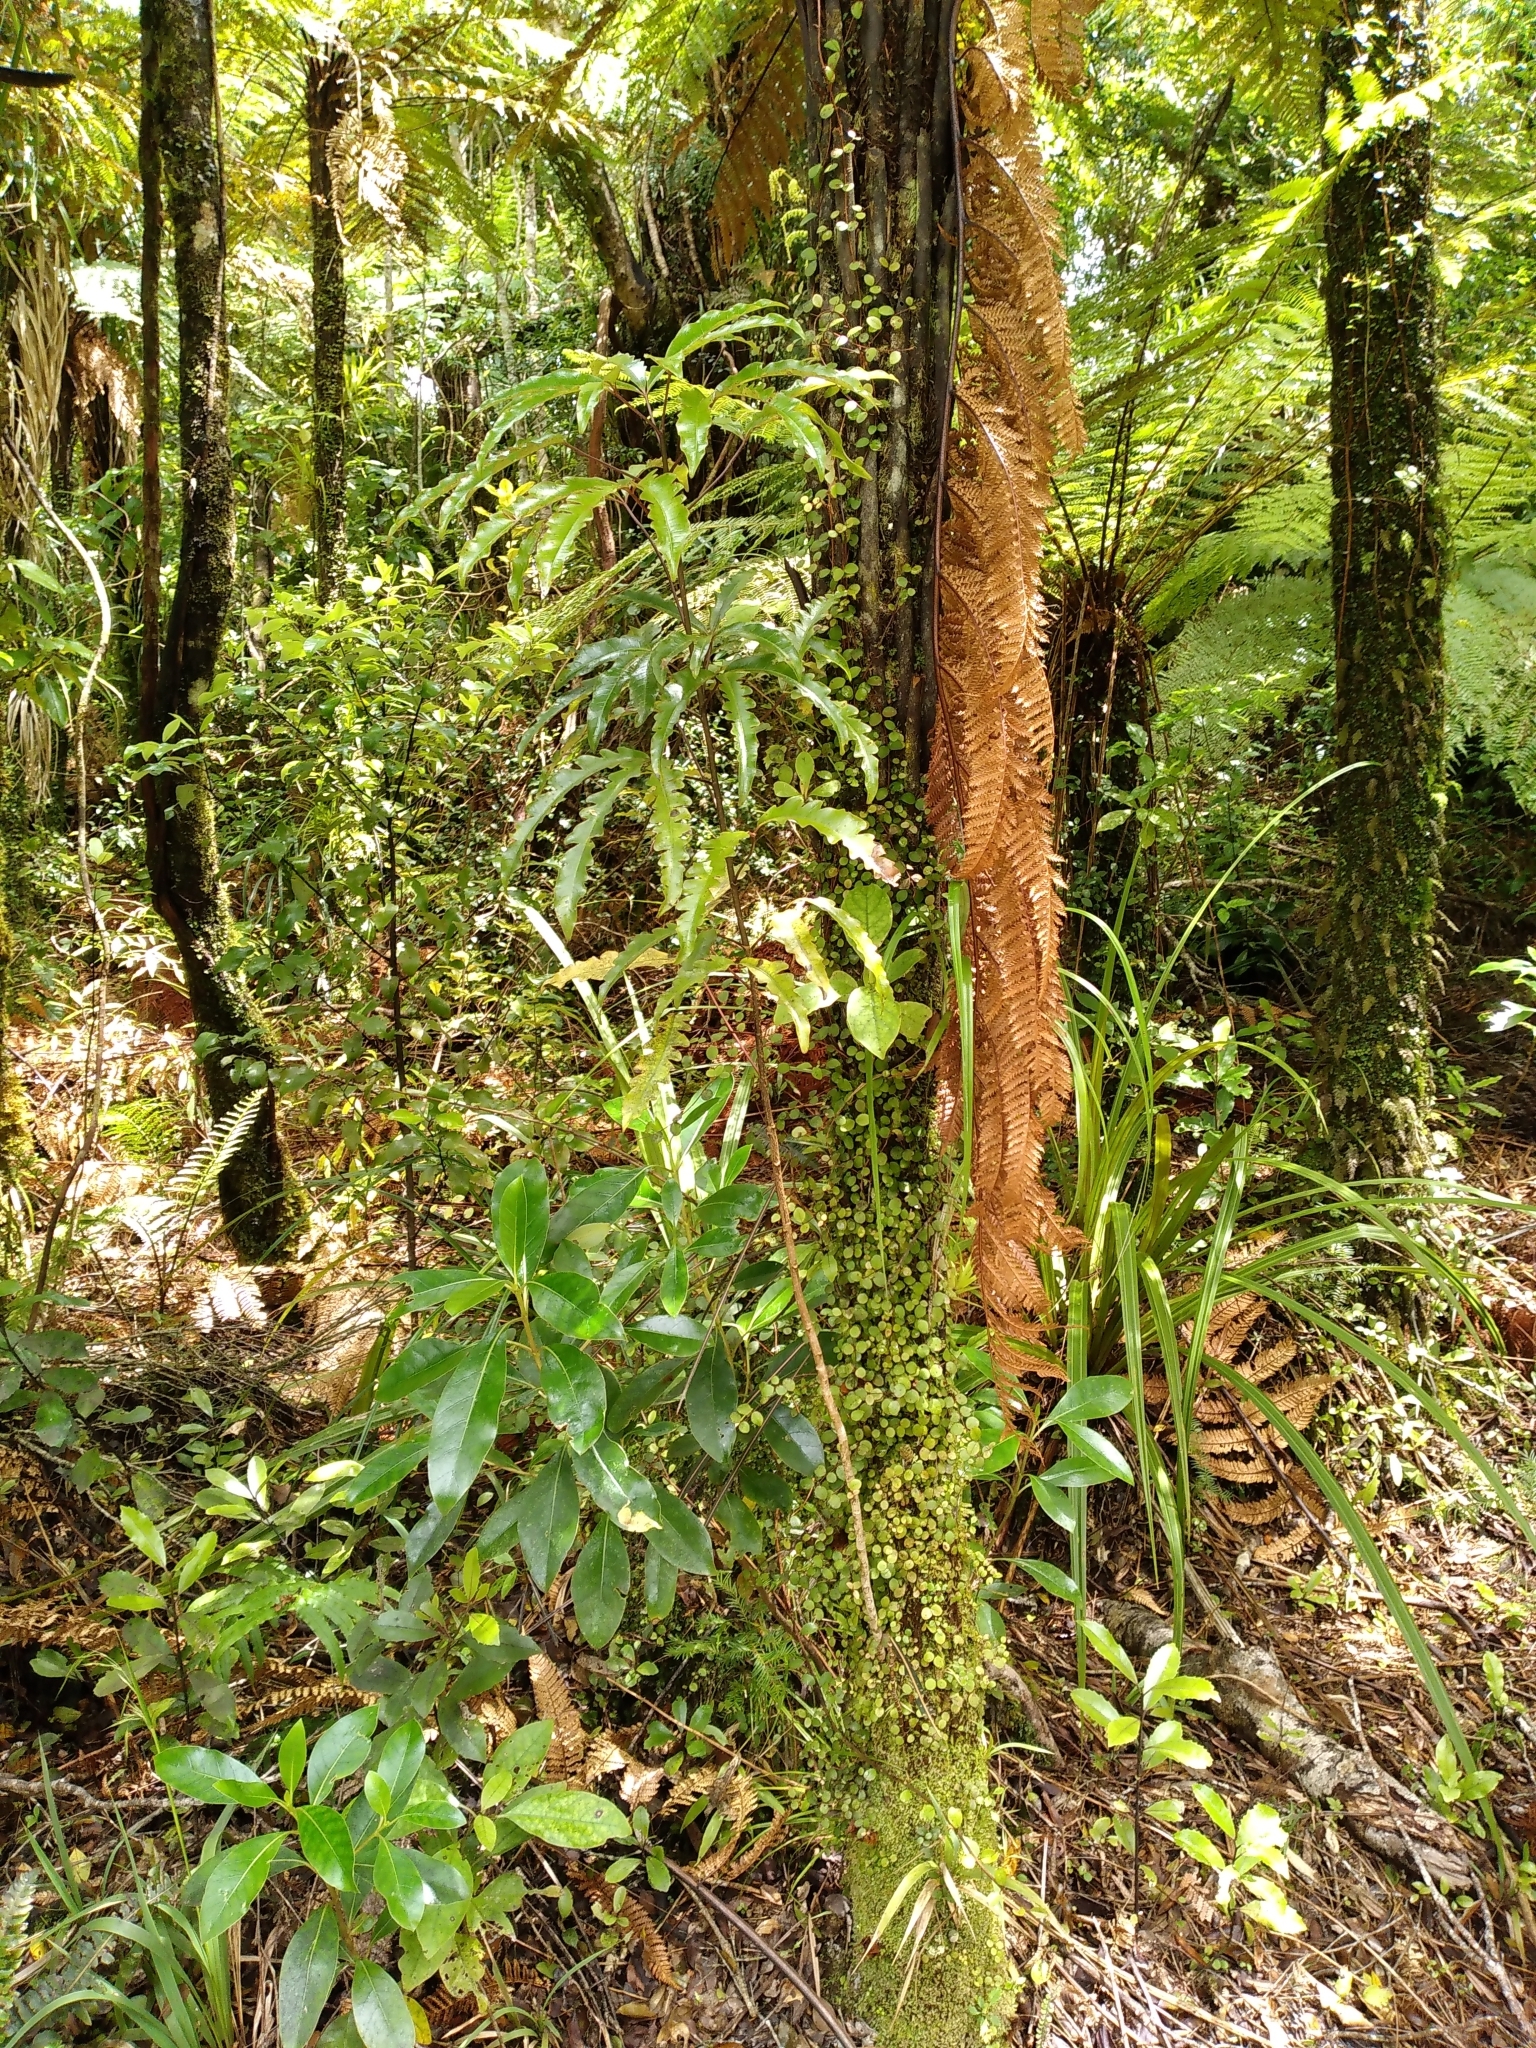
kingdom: Plantae
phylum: Tracheophyta
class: Magnoliopsida
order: Apiales
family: Araliaceae
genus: Raukaua
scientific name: Raukaua edgerleyi
